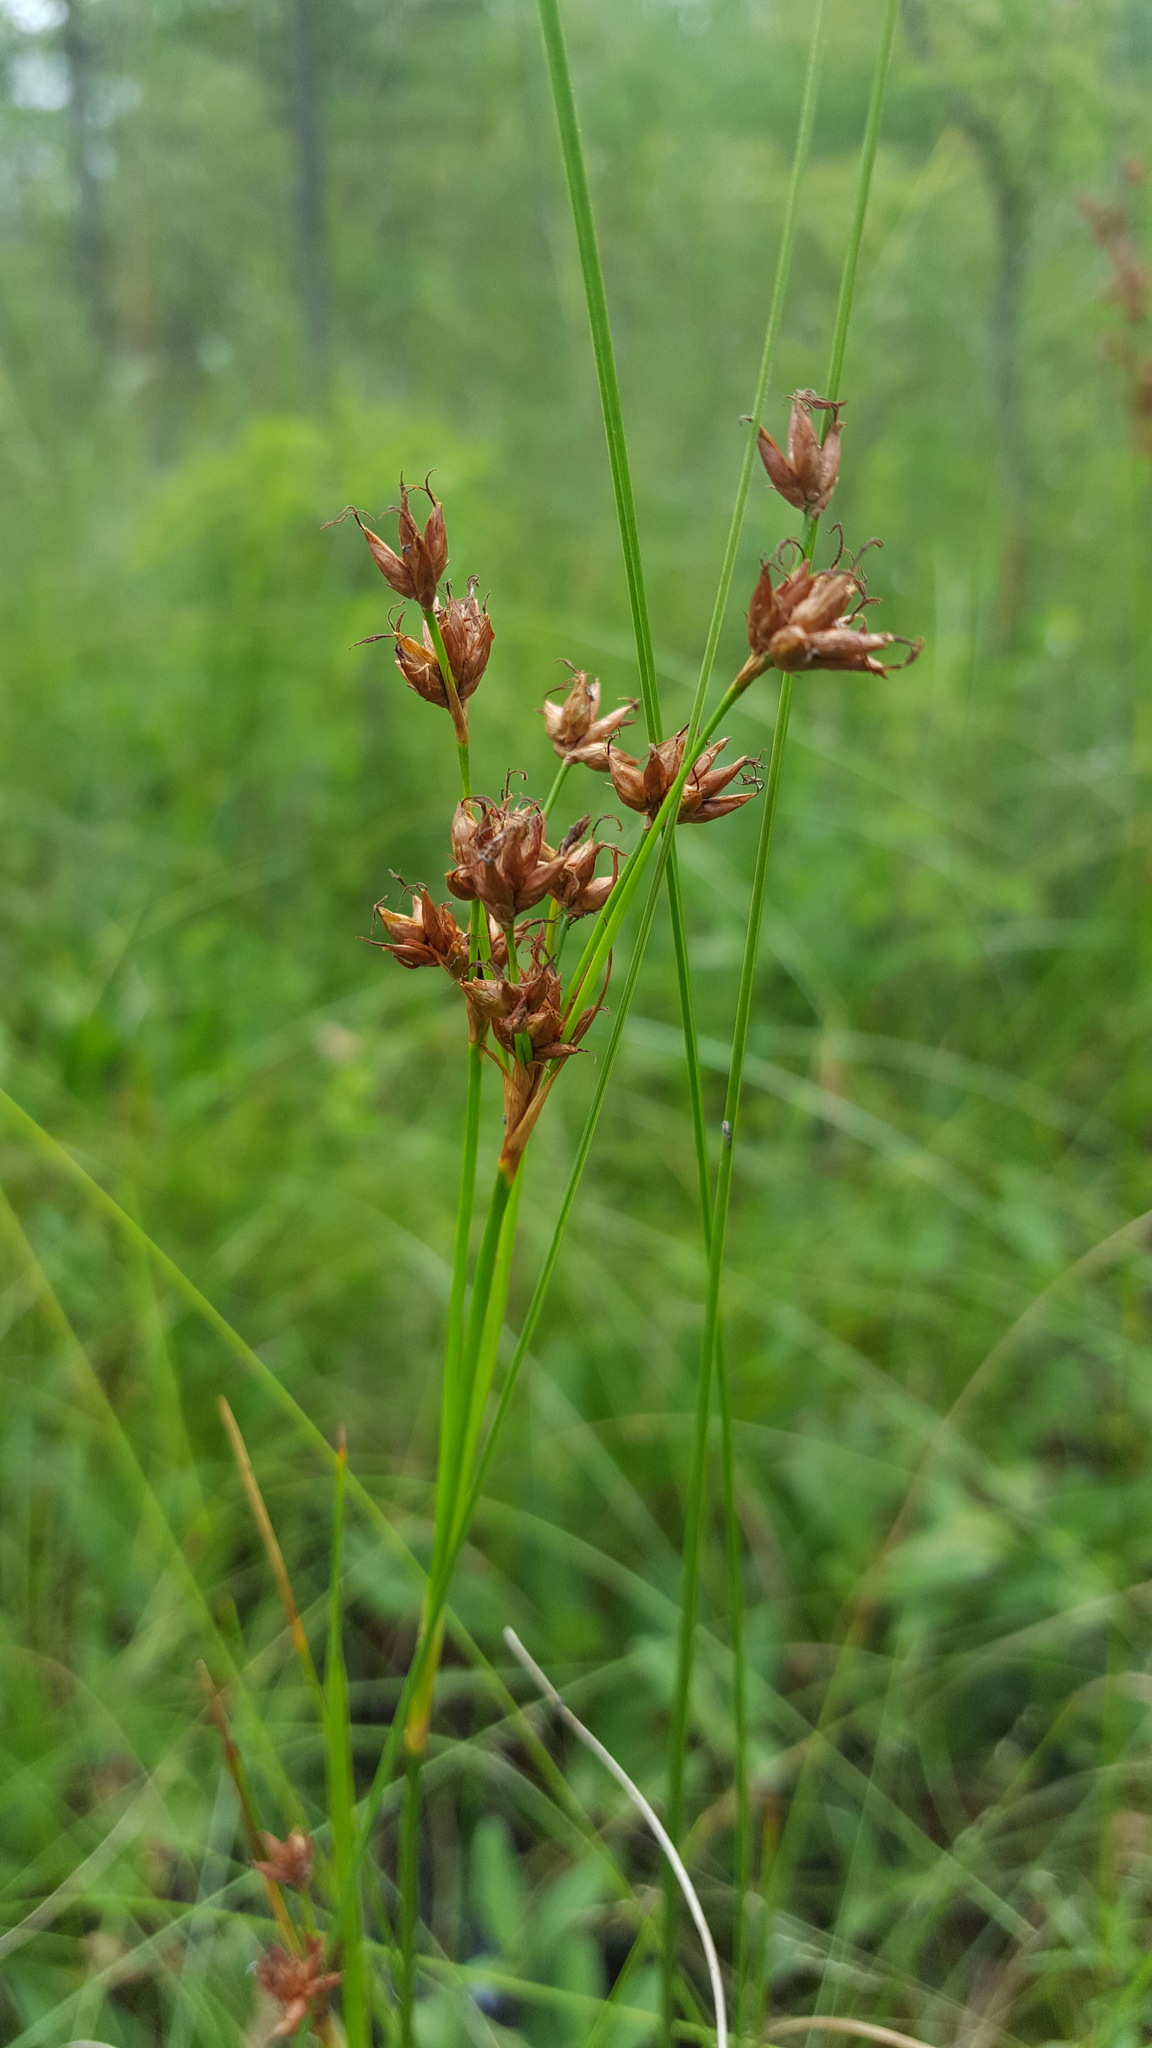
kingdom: Plantae
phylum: Tracheophyta
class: Liliopsida
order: Poales
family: Cyperaceae
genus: Cladium
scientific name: Cladium mariscoides
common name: Smooth sawgrass
